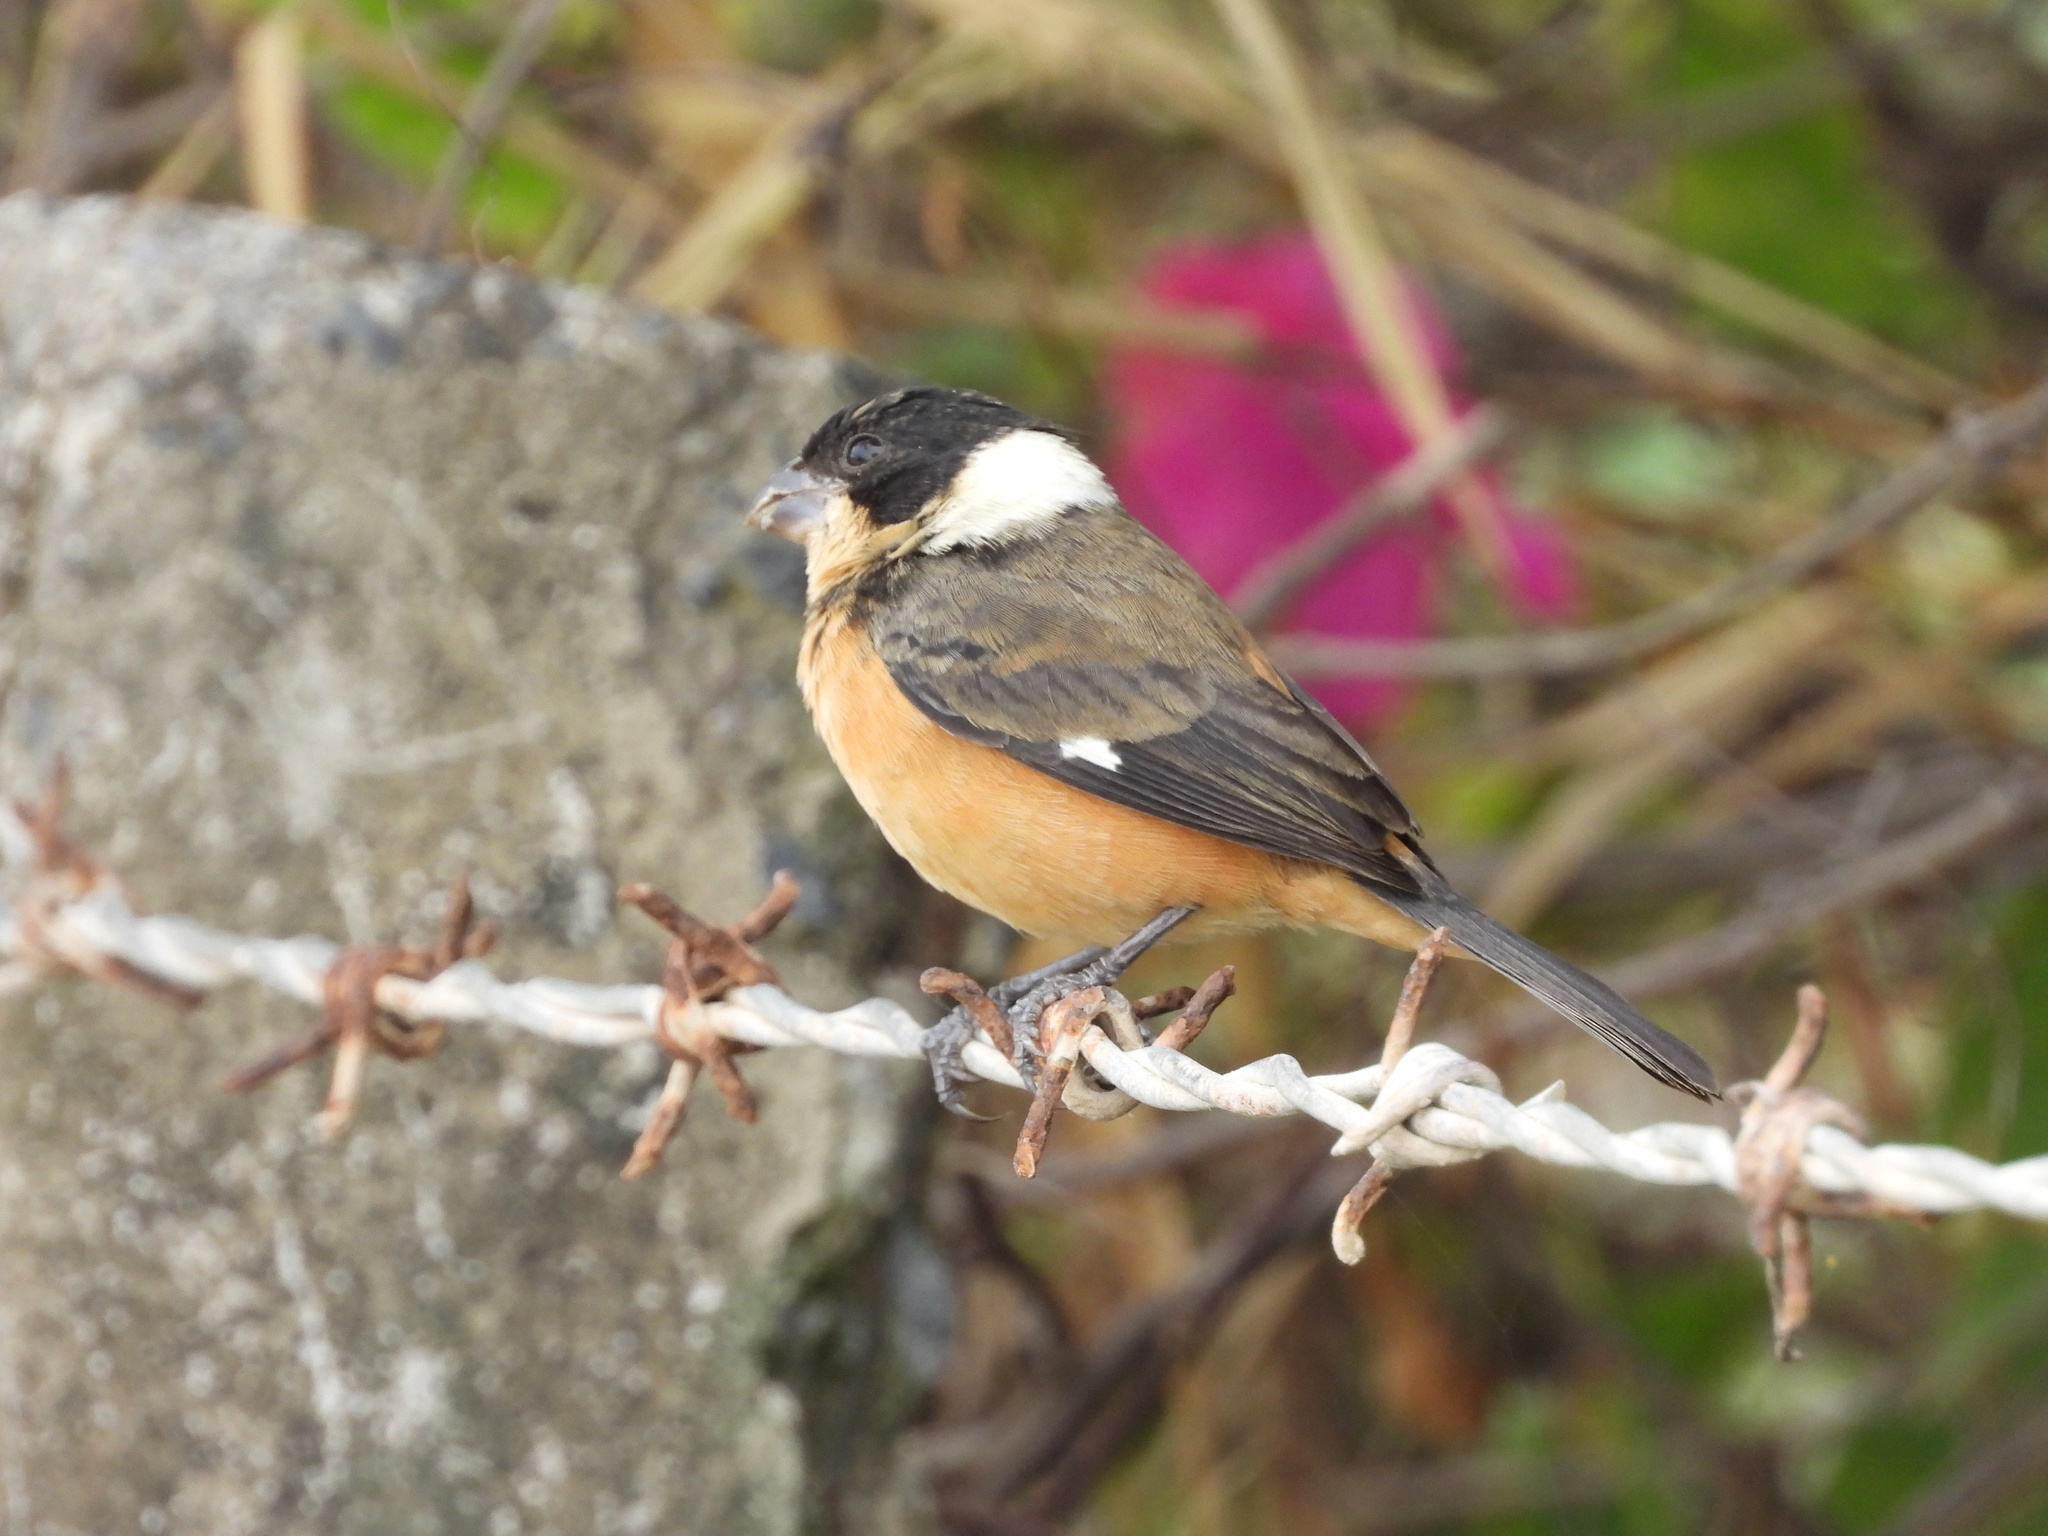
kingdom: Animalia
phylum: Chordata
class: Aves
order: Passeriformes
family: Thraupidae
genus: Sporophila
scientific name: Sporophila torqueola
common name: White-collared seedeater
